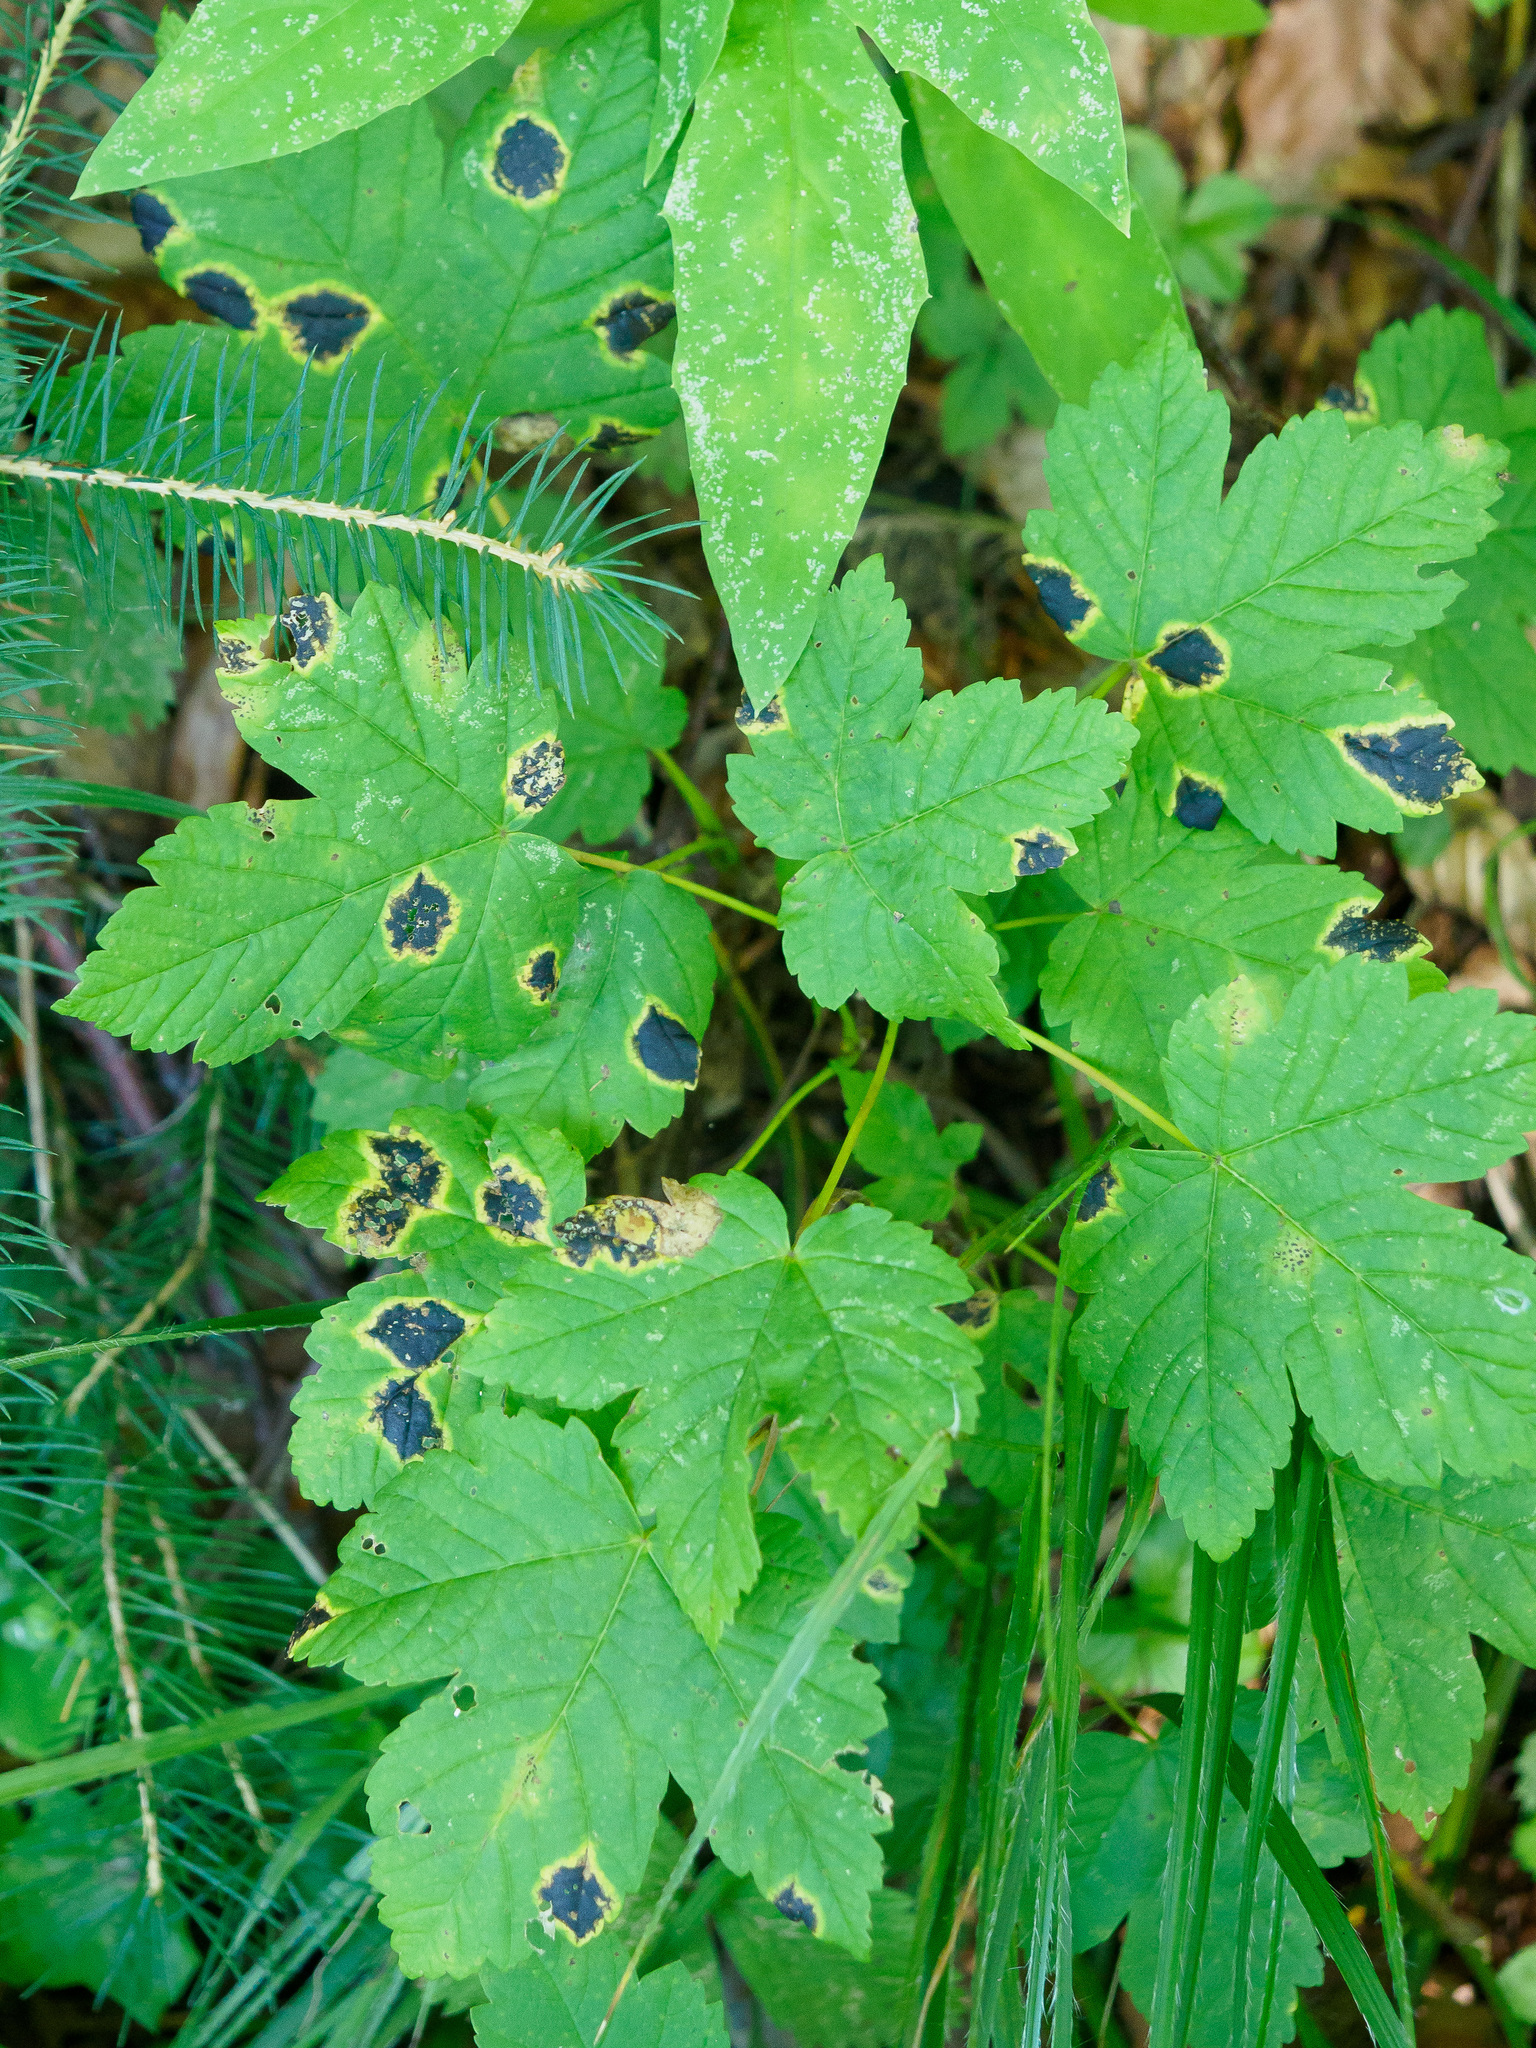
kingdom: Fungi
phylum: Ascomycota
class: Leotiomycetes
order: Rhytismatales
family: Rhytismataceae
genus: Rhytisma
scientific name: Rhytisma acerinum
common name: European tar spot
